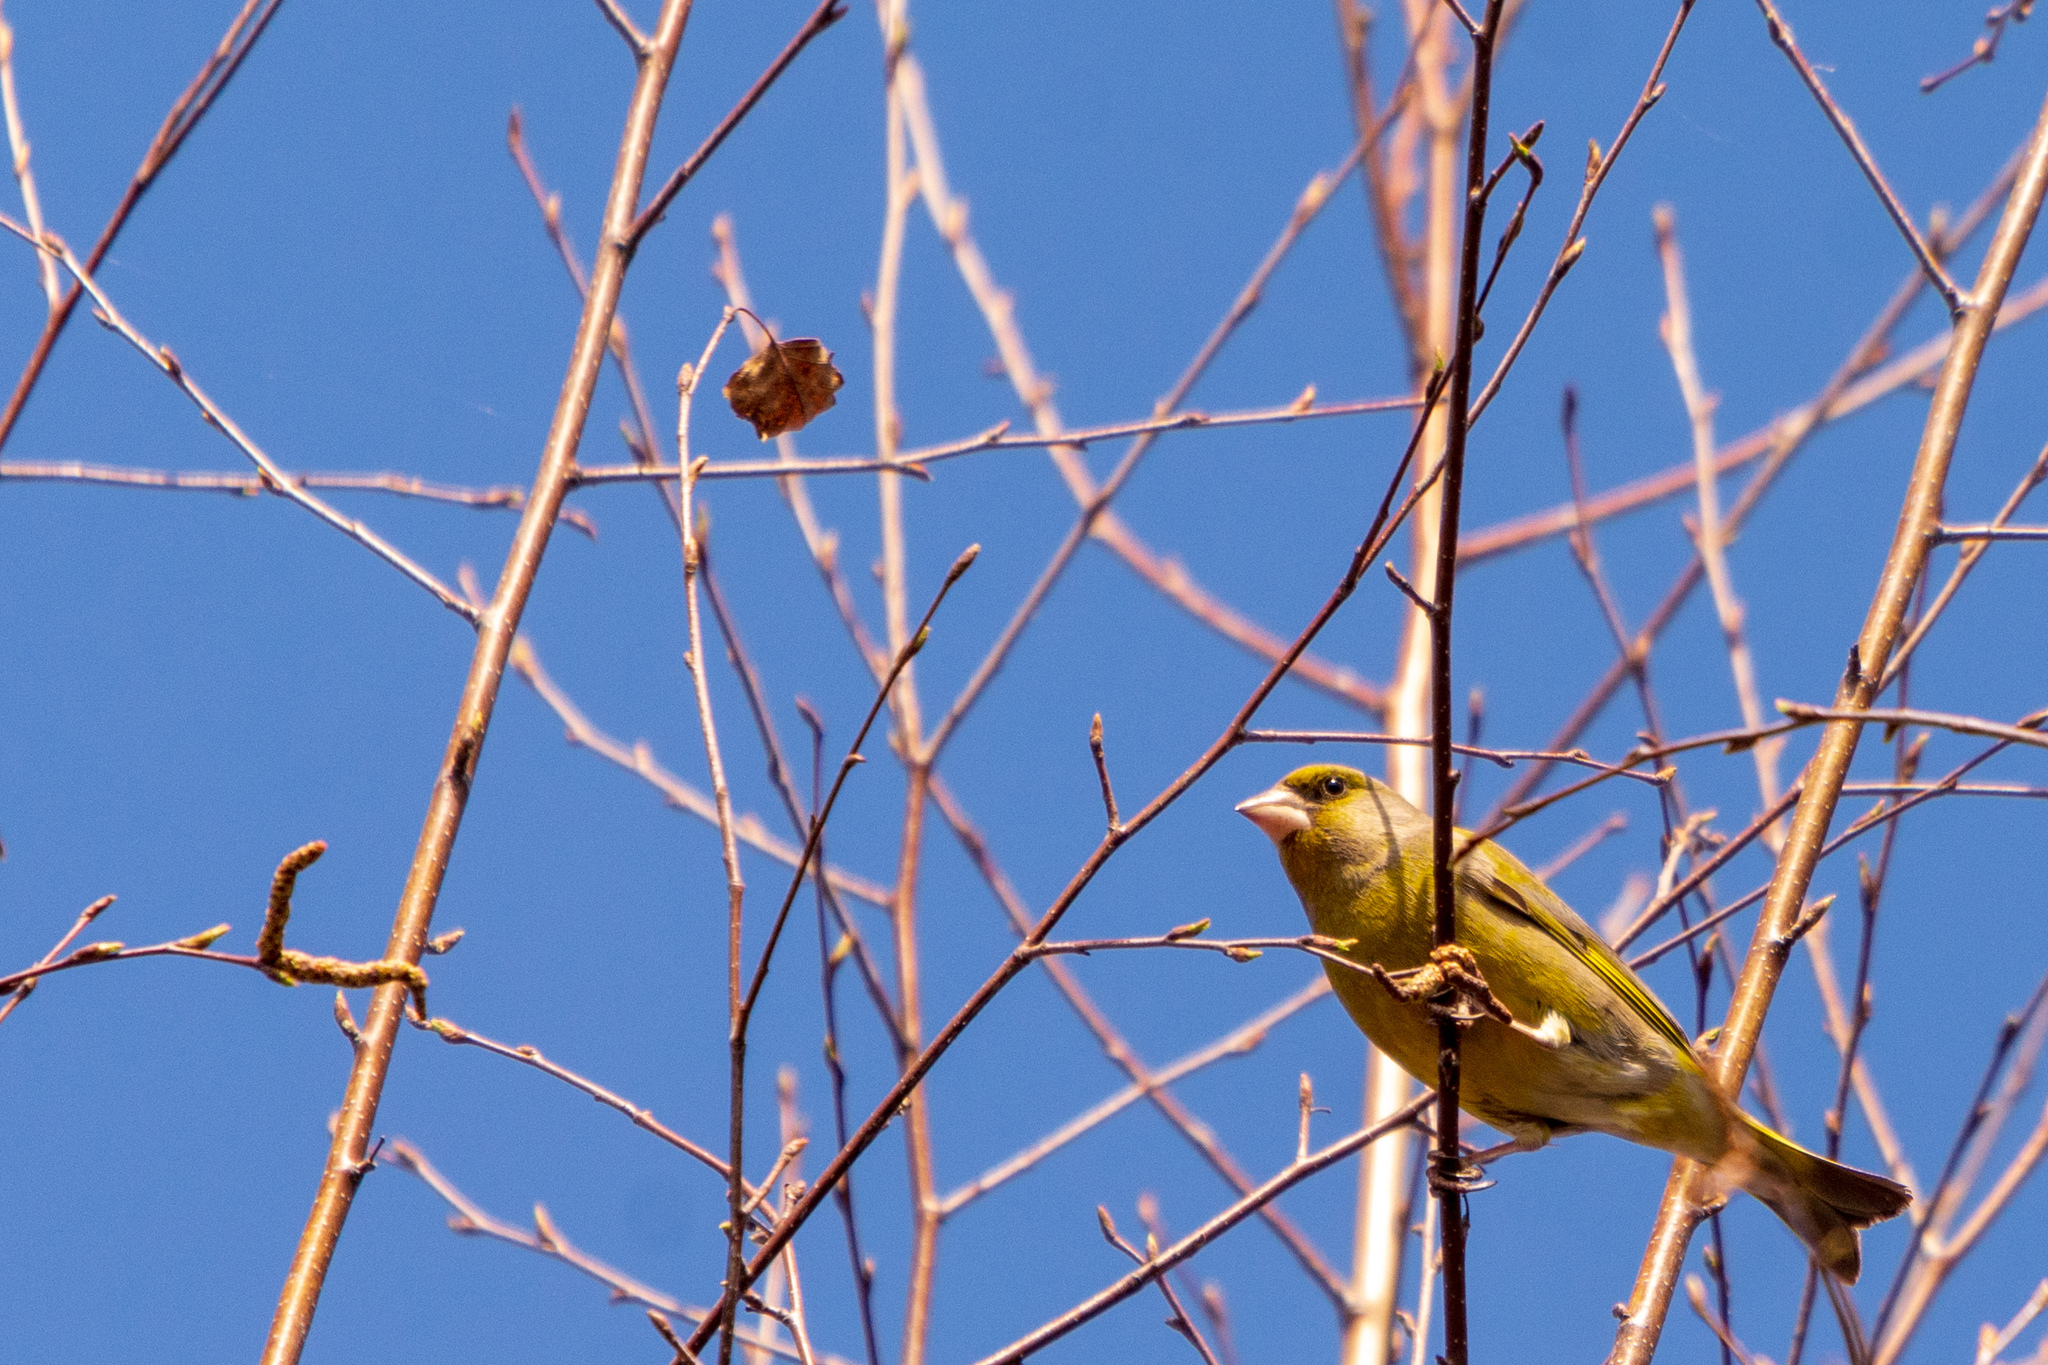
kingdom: Plantae
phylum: Tracheophyta
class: Liliopsida
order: Poales
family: Poaceae
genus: Chloris
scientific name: Chloris chloris
